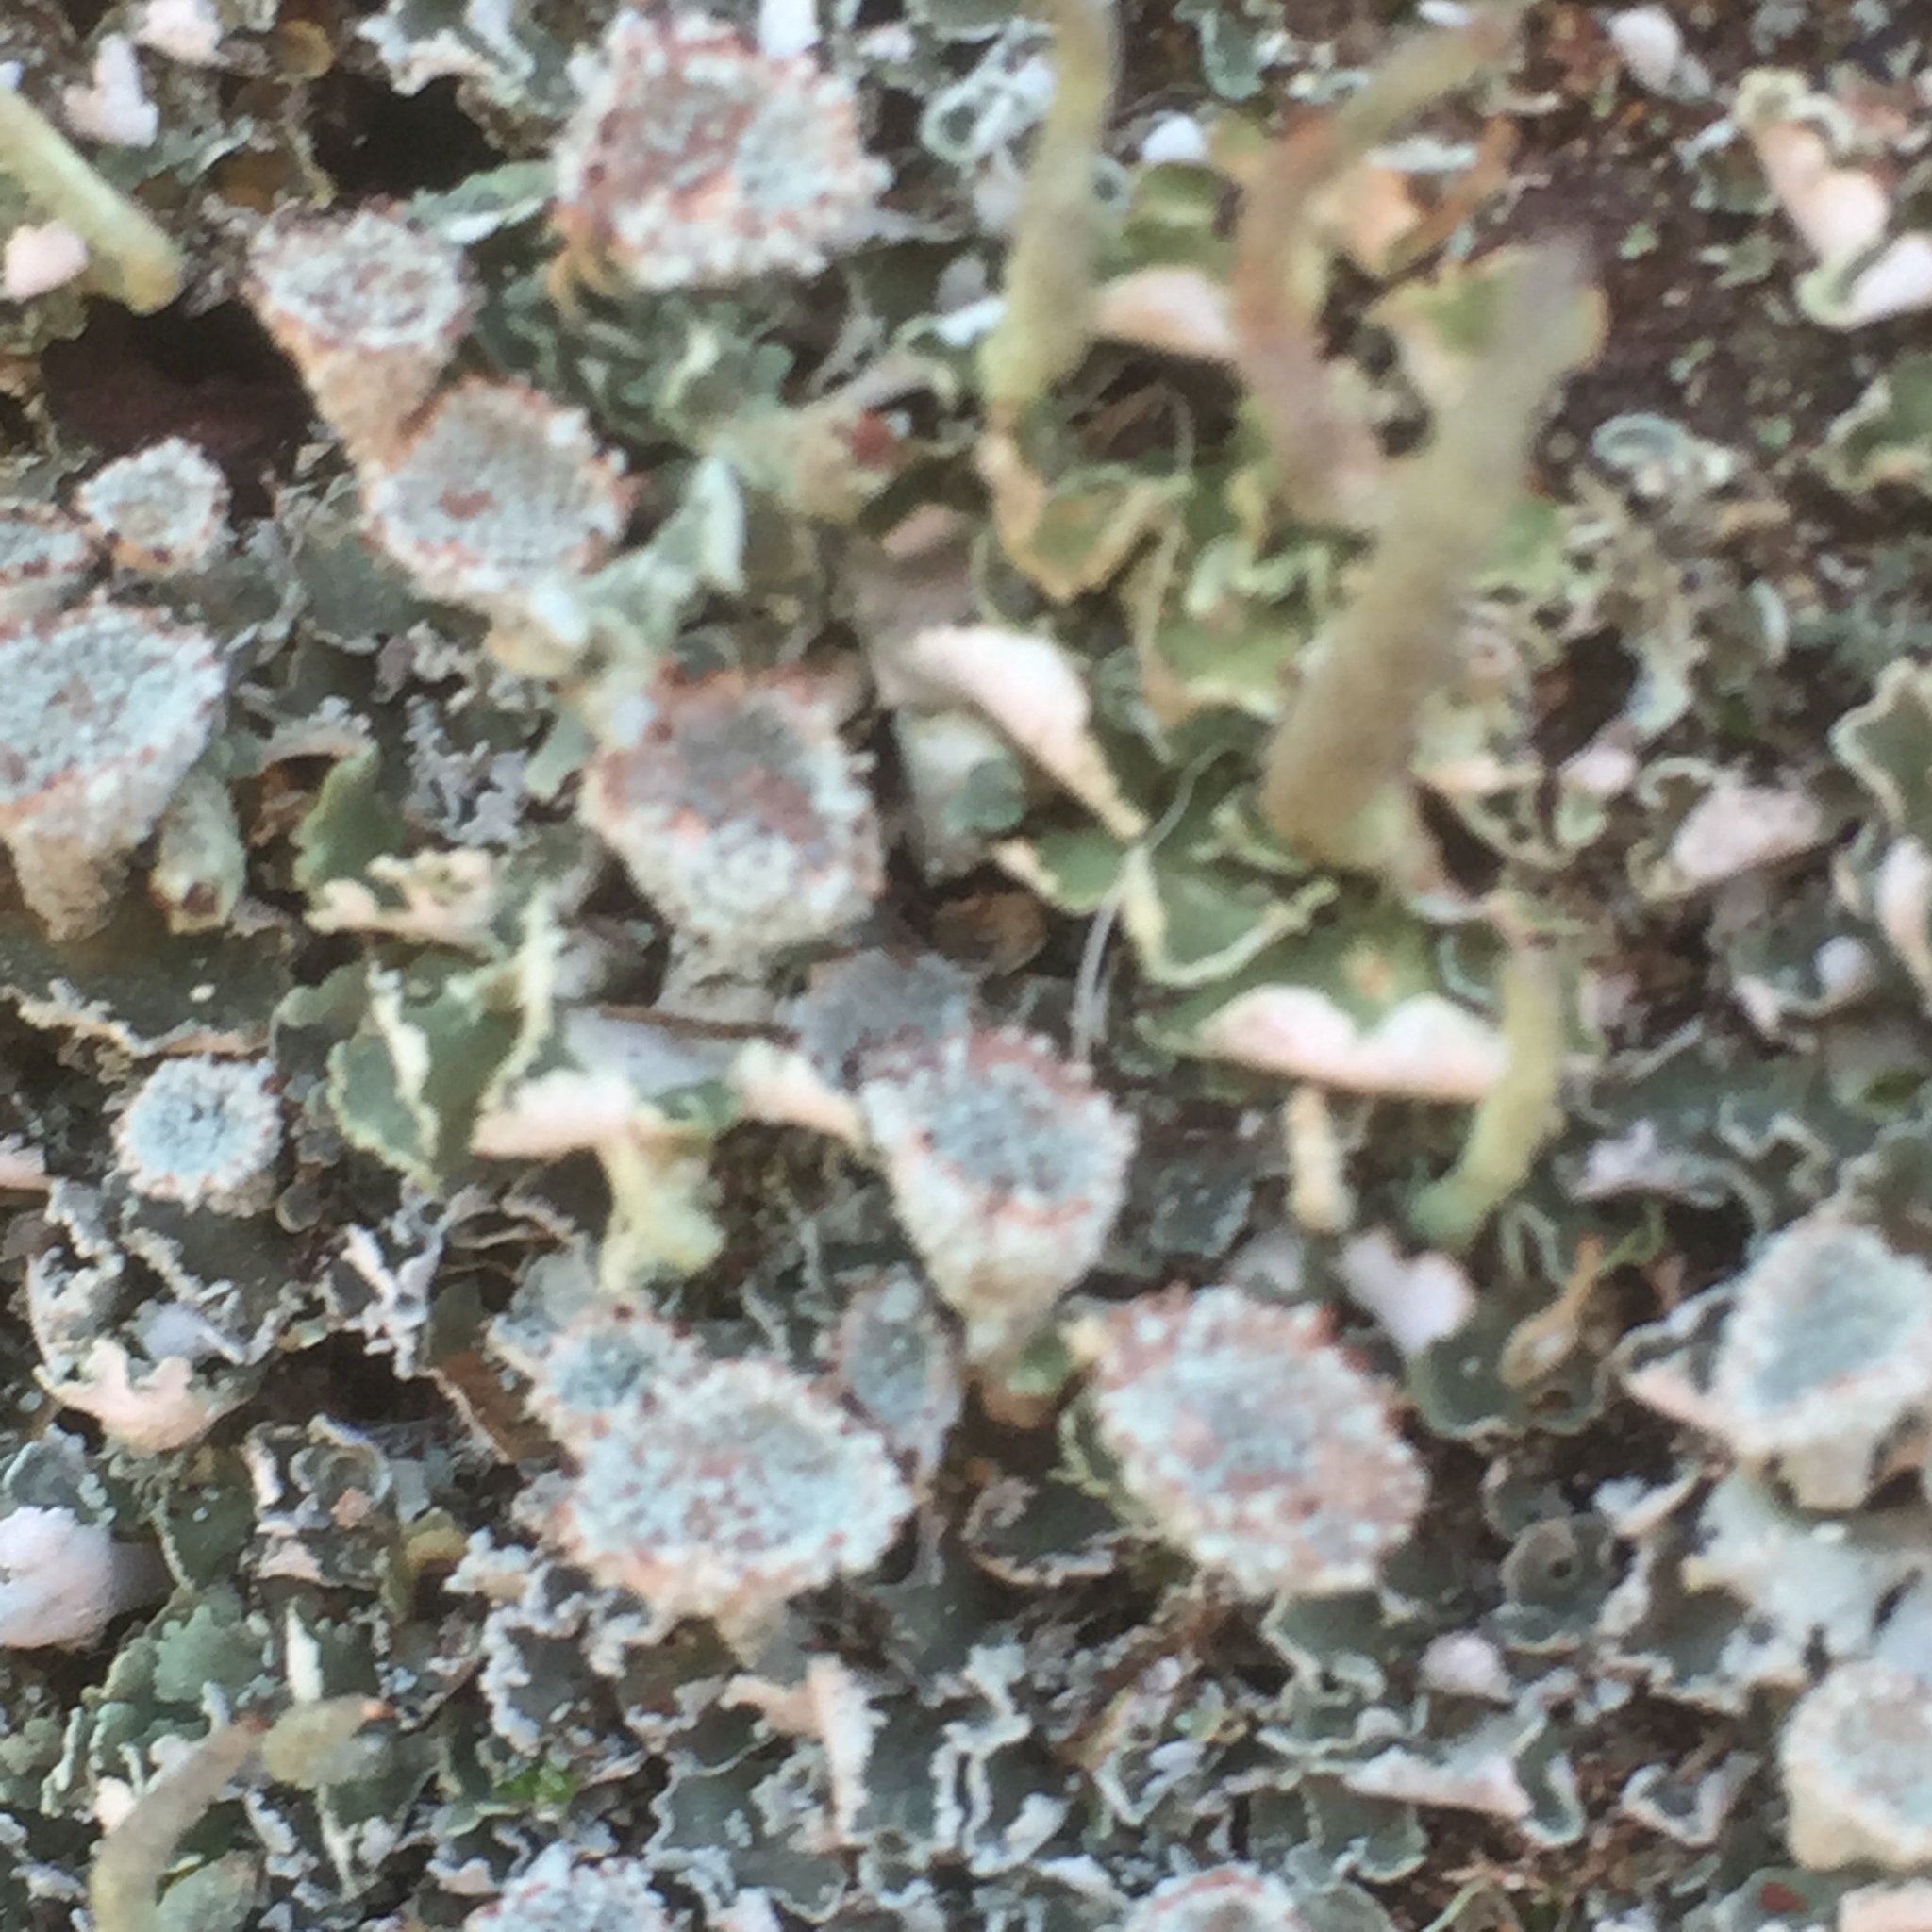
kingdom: Fungi
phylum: Ascomycota
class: Lecanoromycetes
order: Lecanorales
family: Cladoniaceae
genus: Cladonia
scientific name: Cladonia fimbriata
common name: Powdered trumpet lichen
